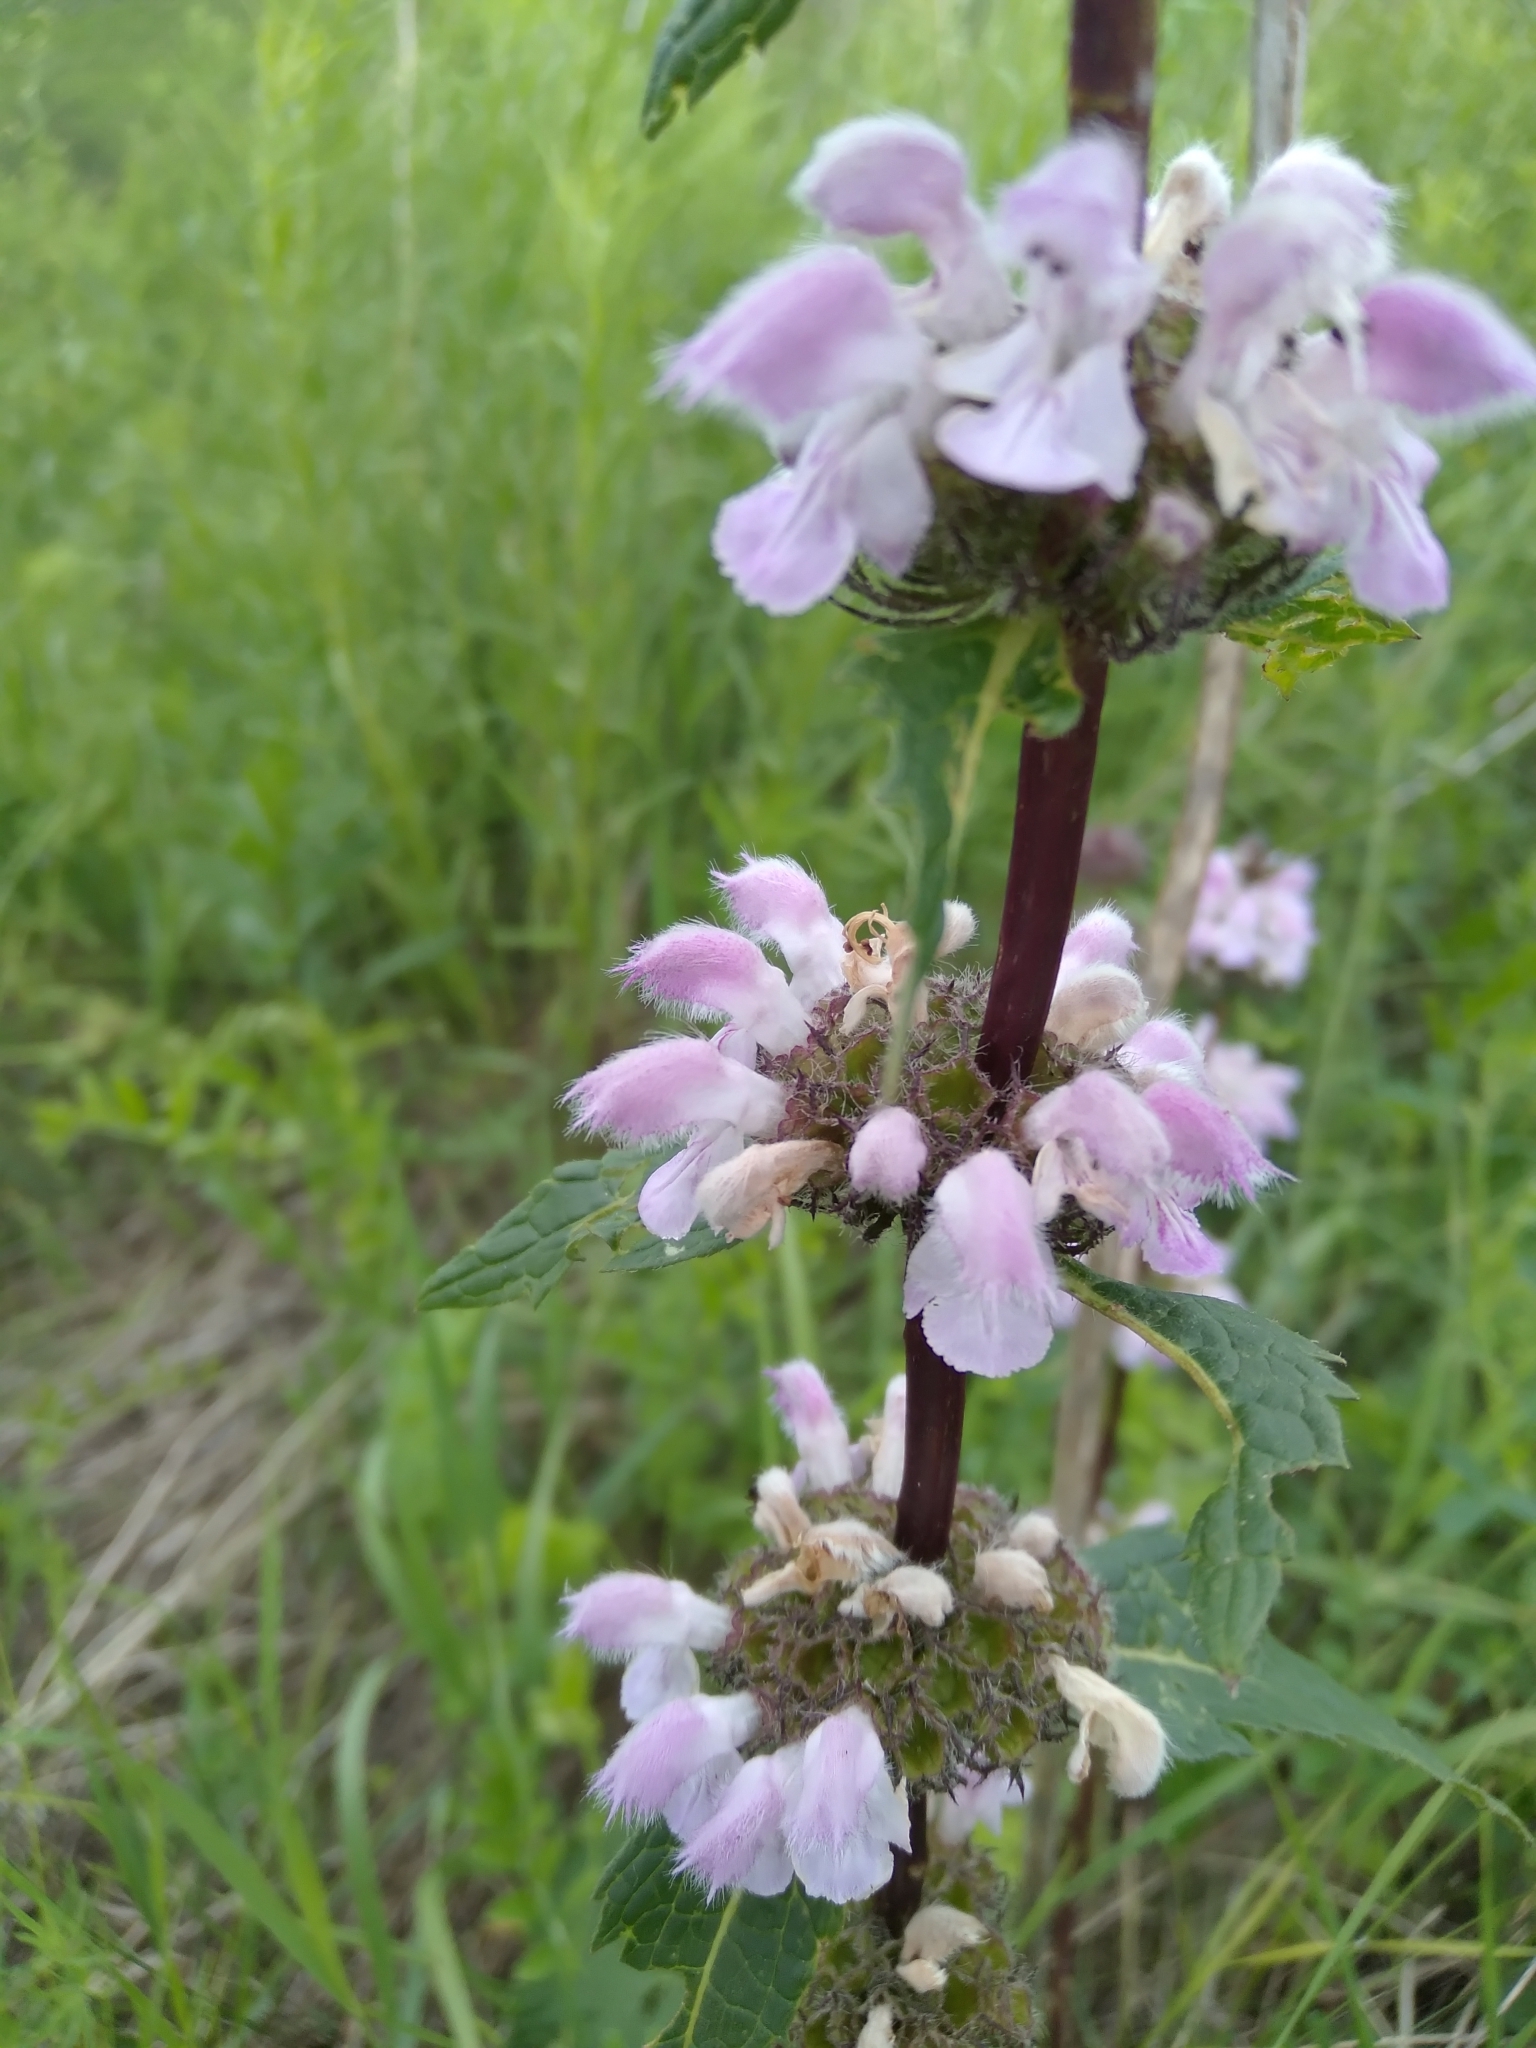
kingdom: Plantae
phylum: Tracheophyta
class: Magnoliopsida
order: Lamiales
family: Lamiaceae
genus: Phlomoides
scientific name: Phlomoides tuberosa
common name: Tuberous jerusalem sage
